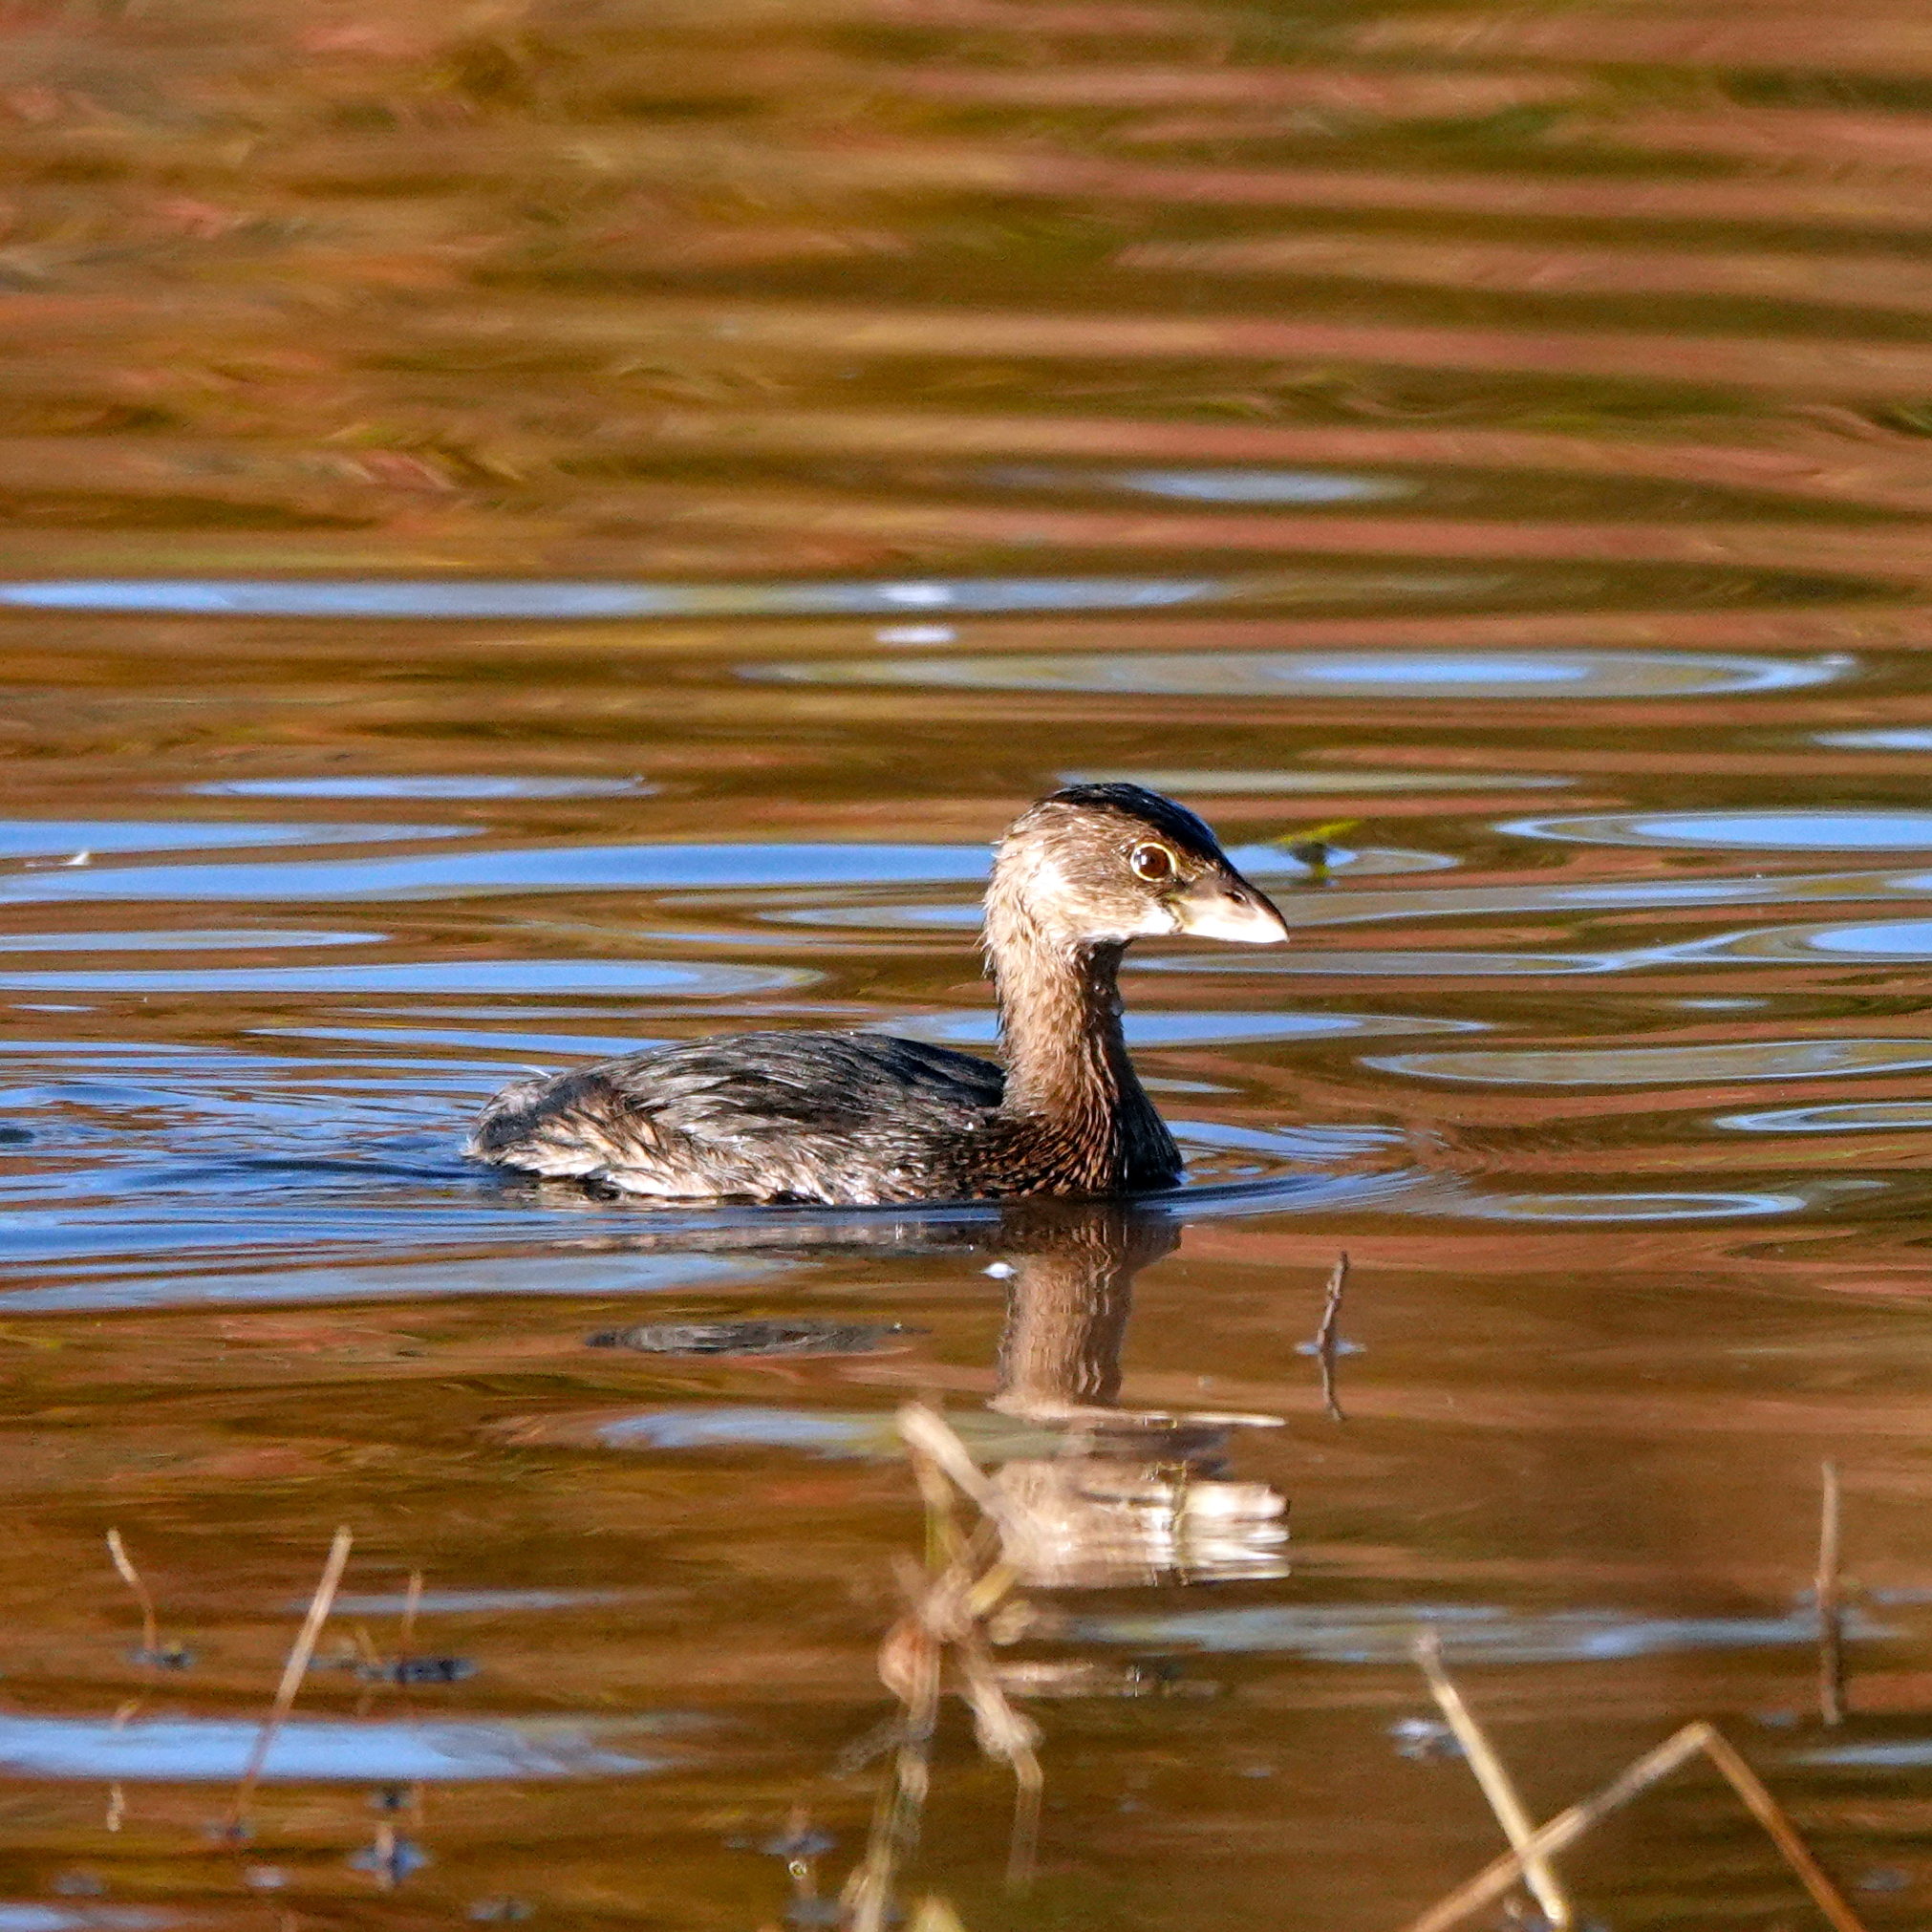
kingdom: Animalia
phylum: Chordata
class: Aves
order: Podicipediformes
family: Podicipedidae
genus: Podilymbus
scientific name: Podilymbus podiceps
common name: Pied-billed grebe
